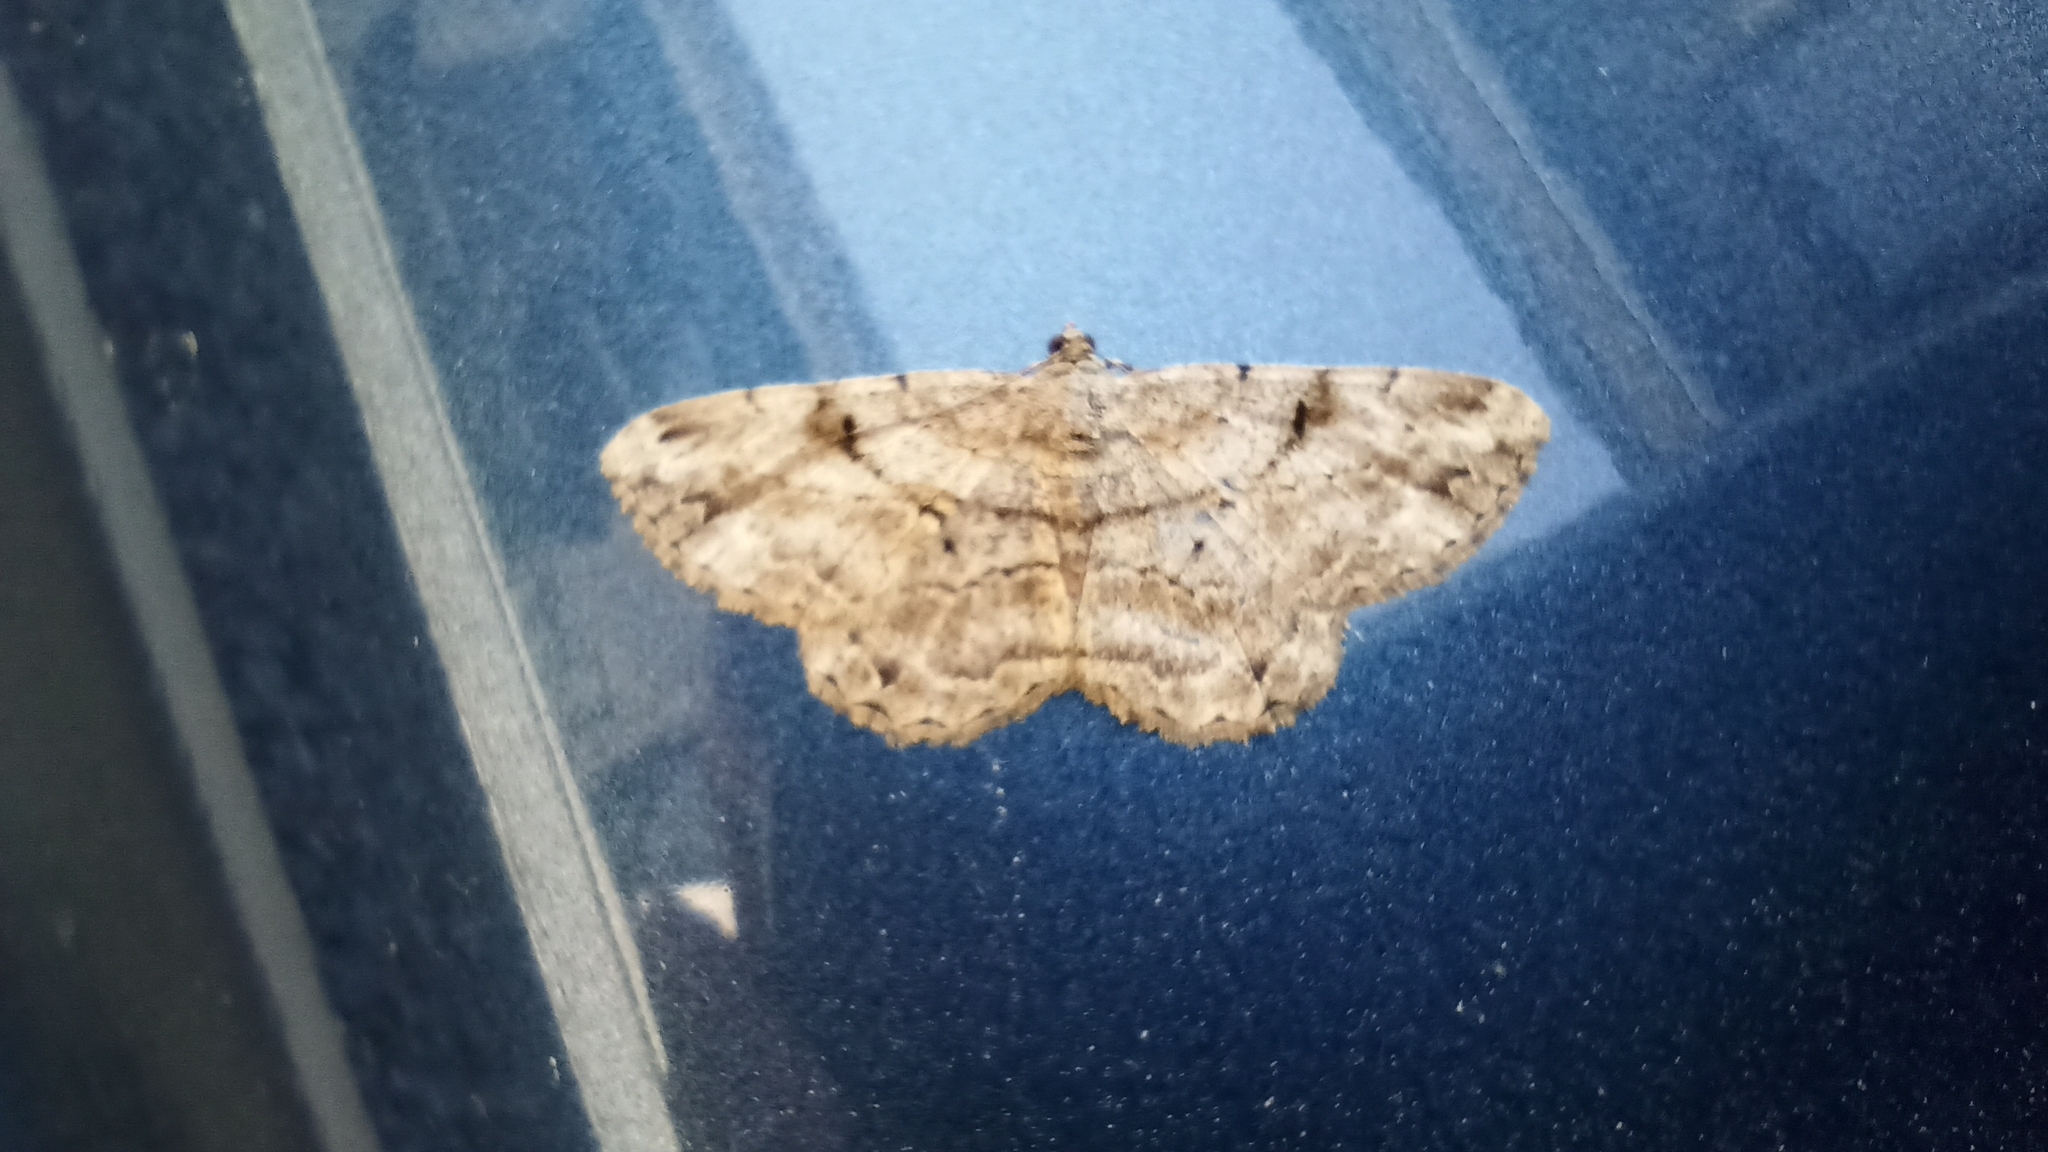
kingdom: Animalia
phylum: Arthropoda
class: Insecta
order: Lepidoptera
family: Geometridae
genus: Peribatodes
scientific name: Peribatodes rhomboidaria
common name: Willow beauty
